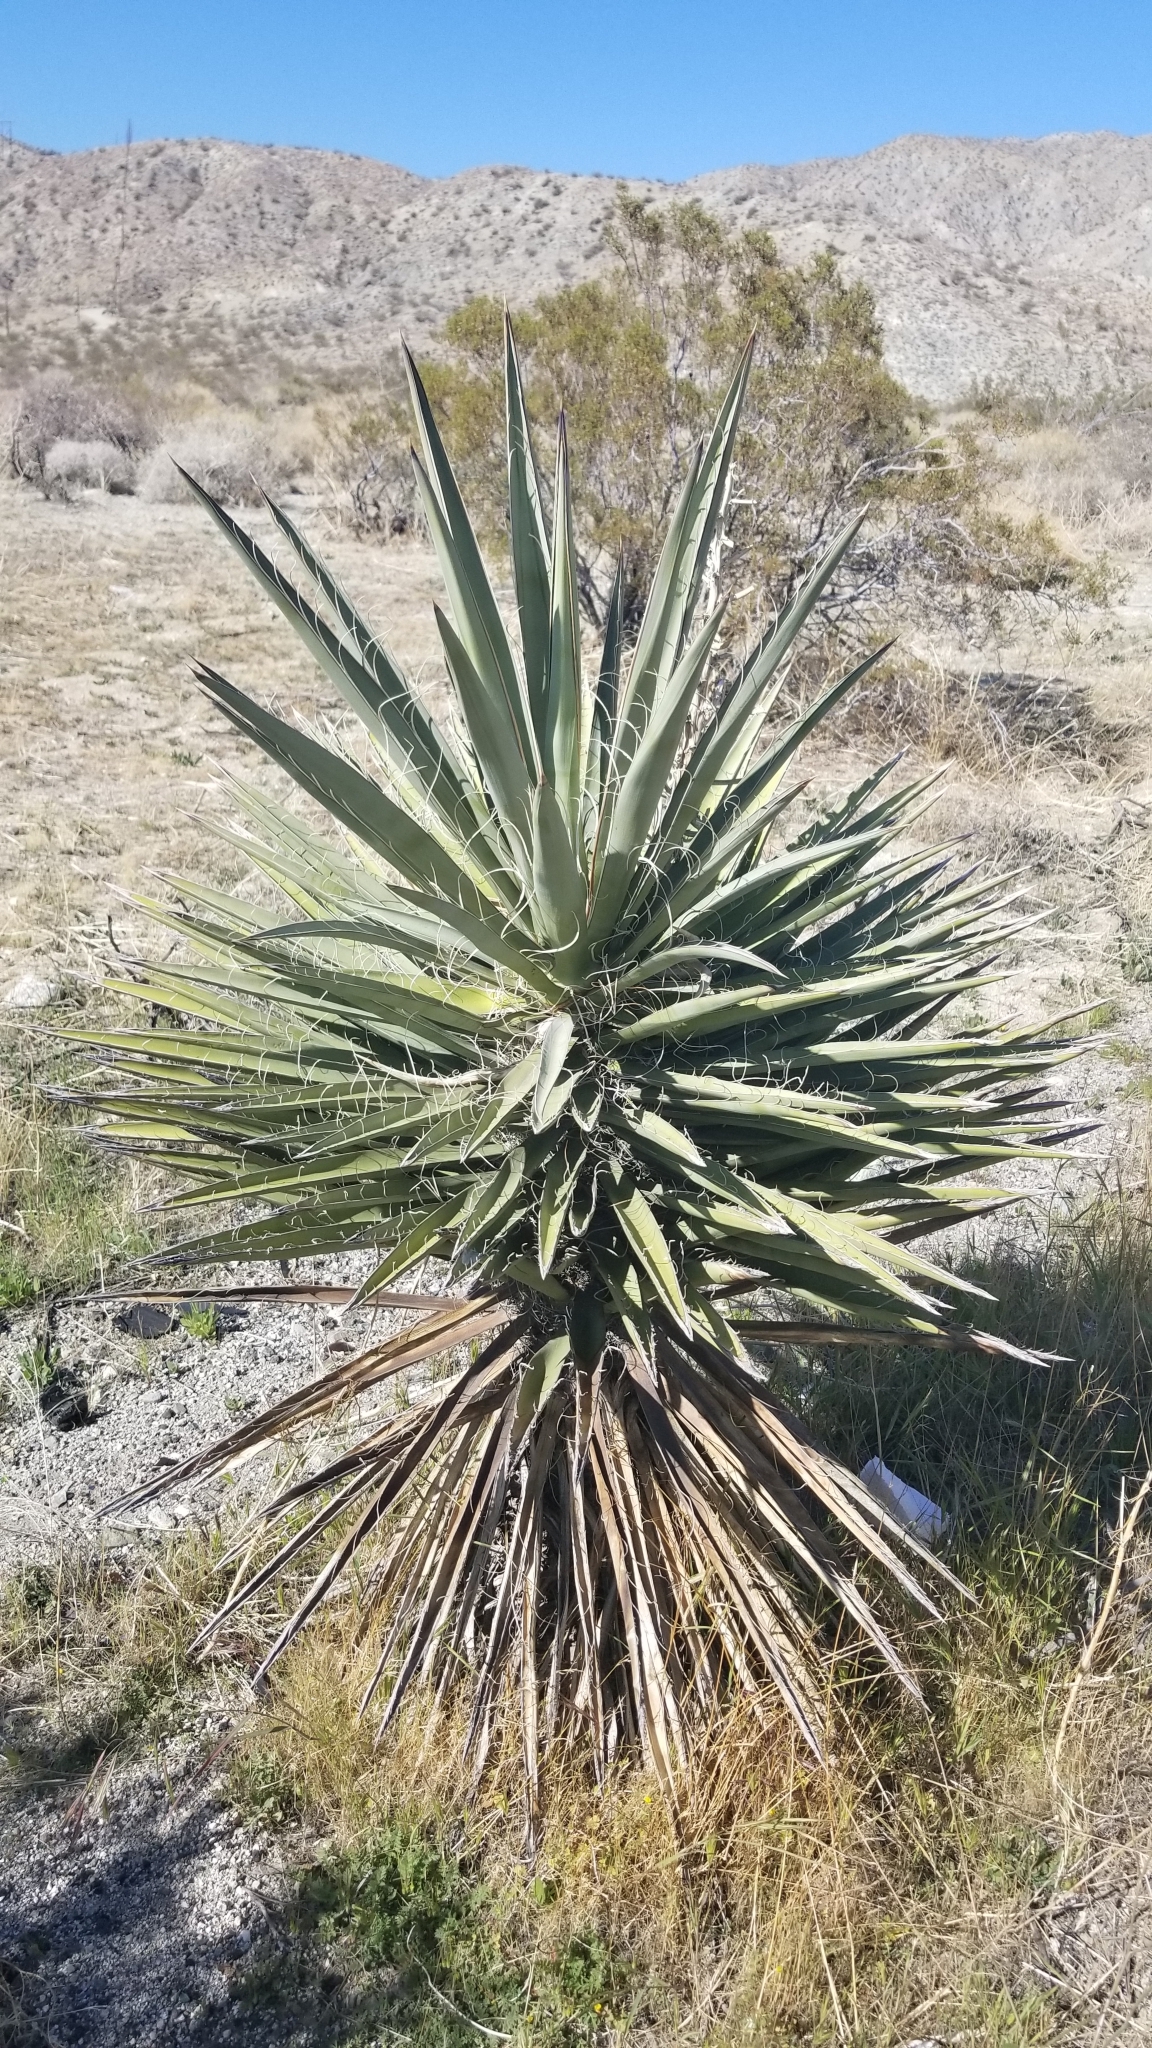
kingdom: Plantae
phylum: Tracheophyta
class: Liliopsida
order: Asparagales
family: Asparagaceae
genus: Yucca
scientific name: Yucca schidigera
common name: Mojave yucca
